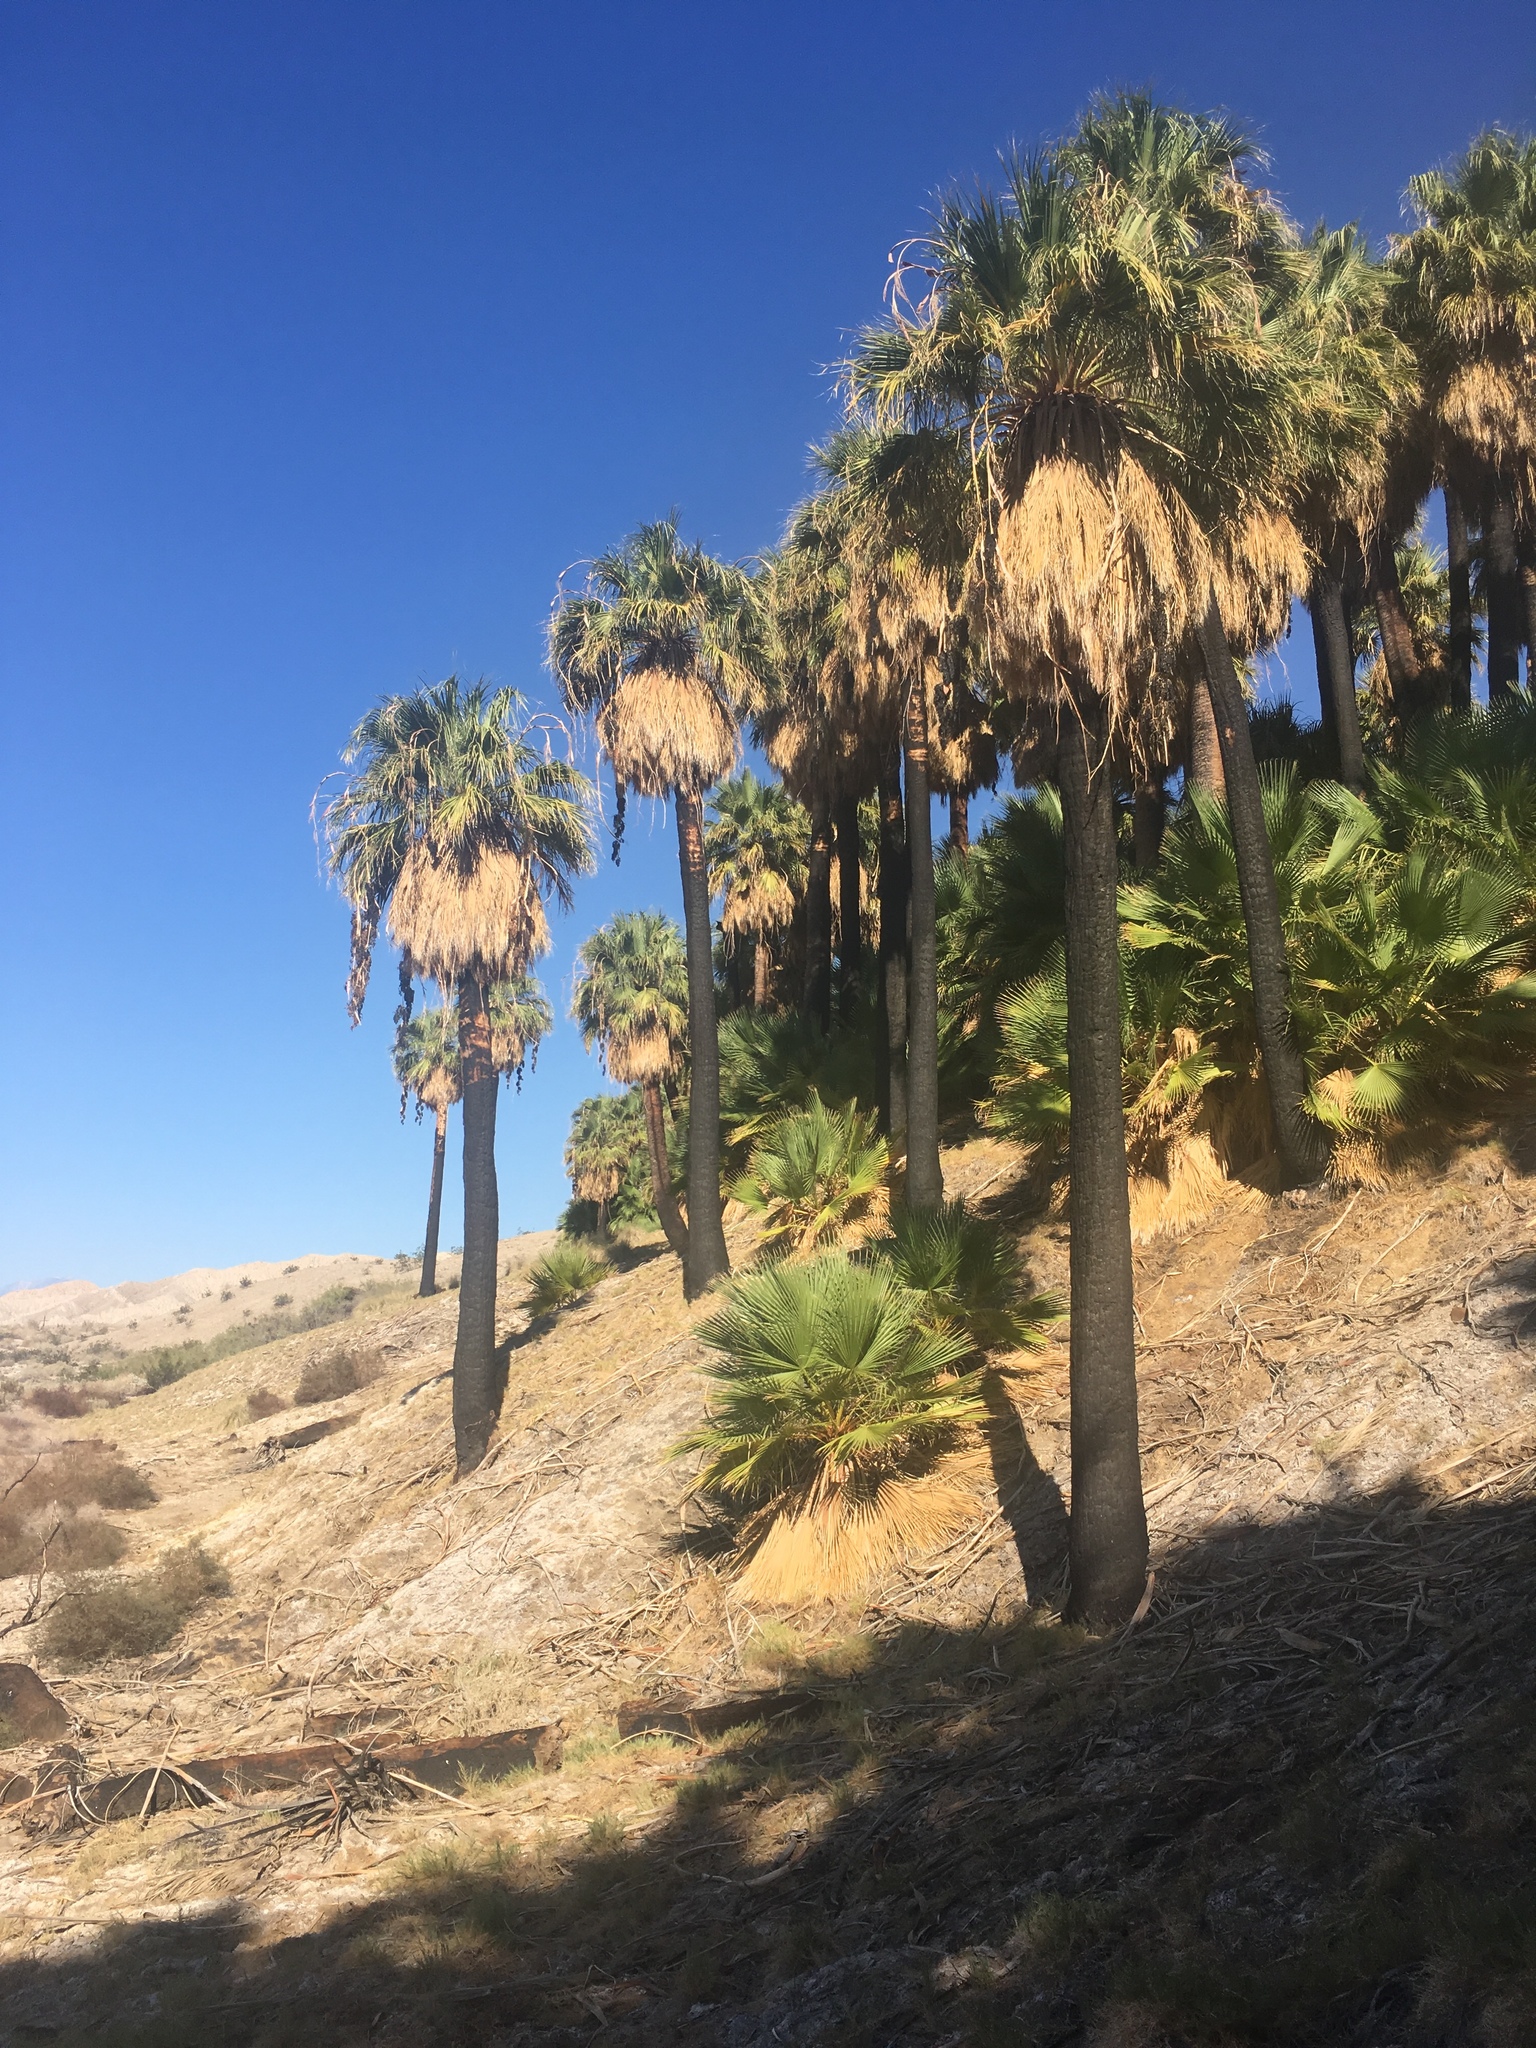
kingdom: Plantae
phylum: Tracheophyta
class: Liliopsida
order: Arecales
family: Arecaceae
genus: Washingtonia
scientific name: Washingtonia filifera
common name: California fan palm
